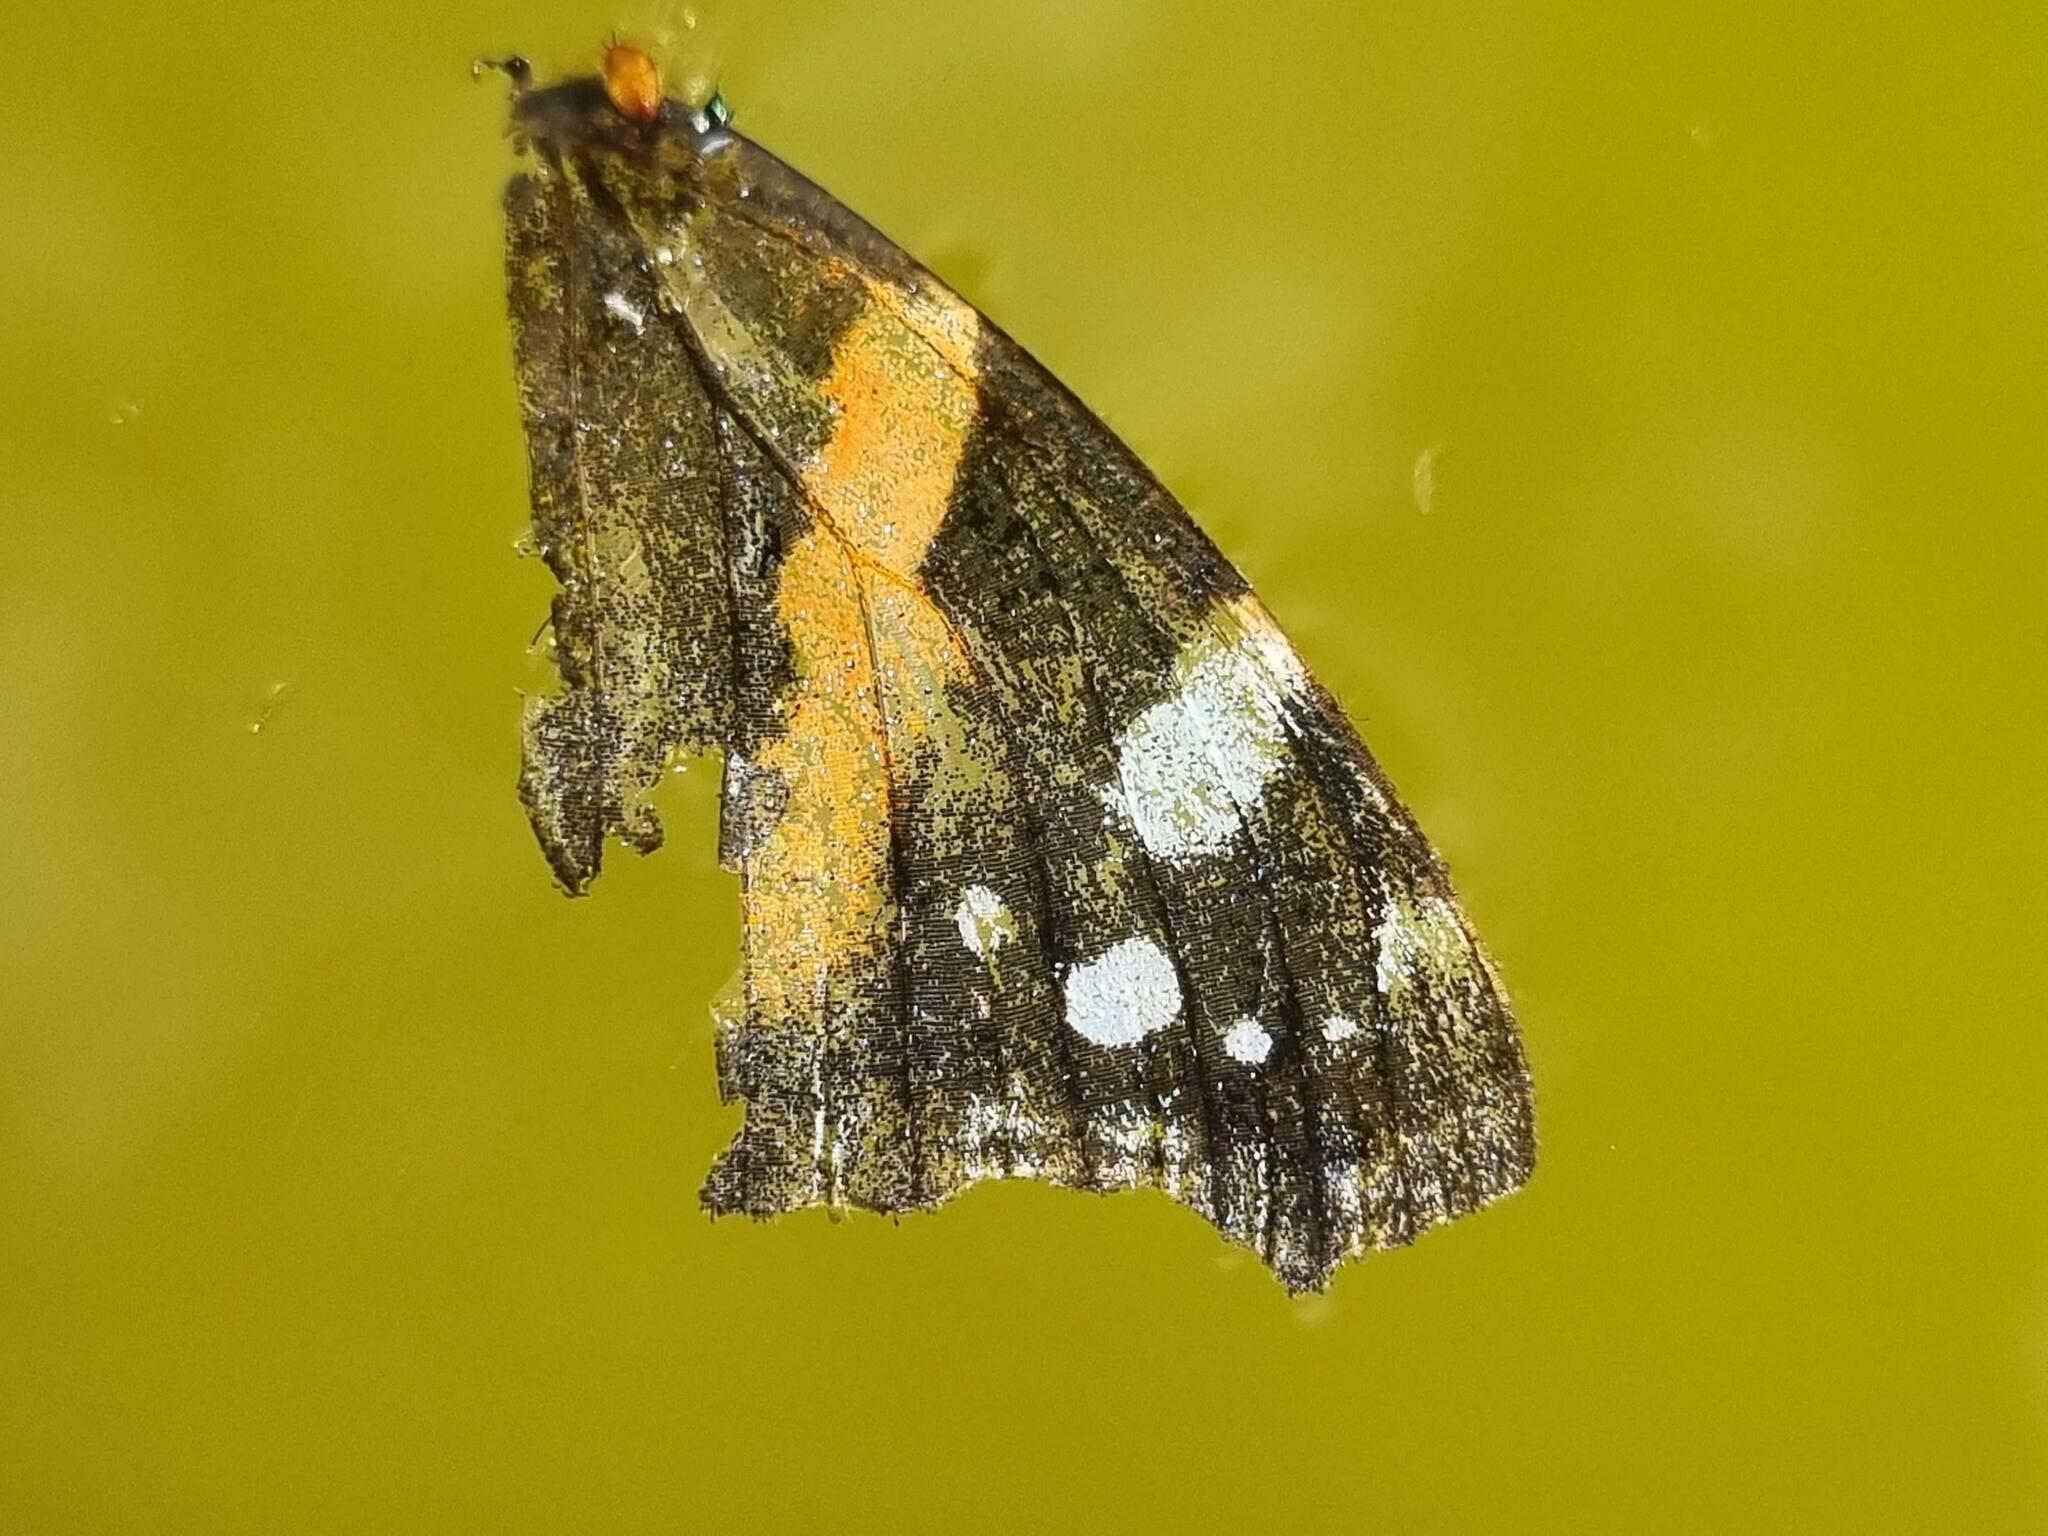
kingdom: Animalia
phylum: Arthropoda
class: Insecta
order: Lepidoptera
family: Nymphalidae
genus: Vanessa
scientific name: Vanessa atalanta
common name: Red admiral
